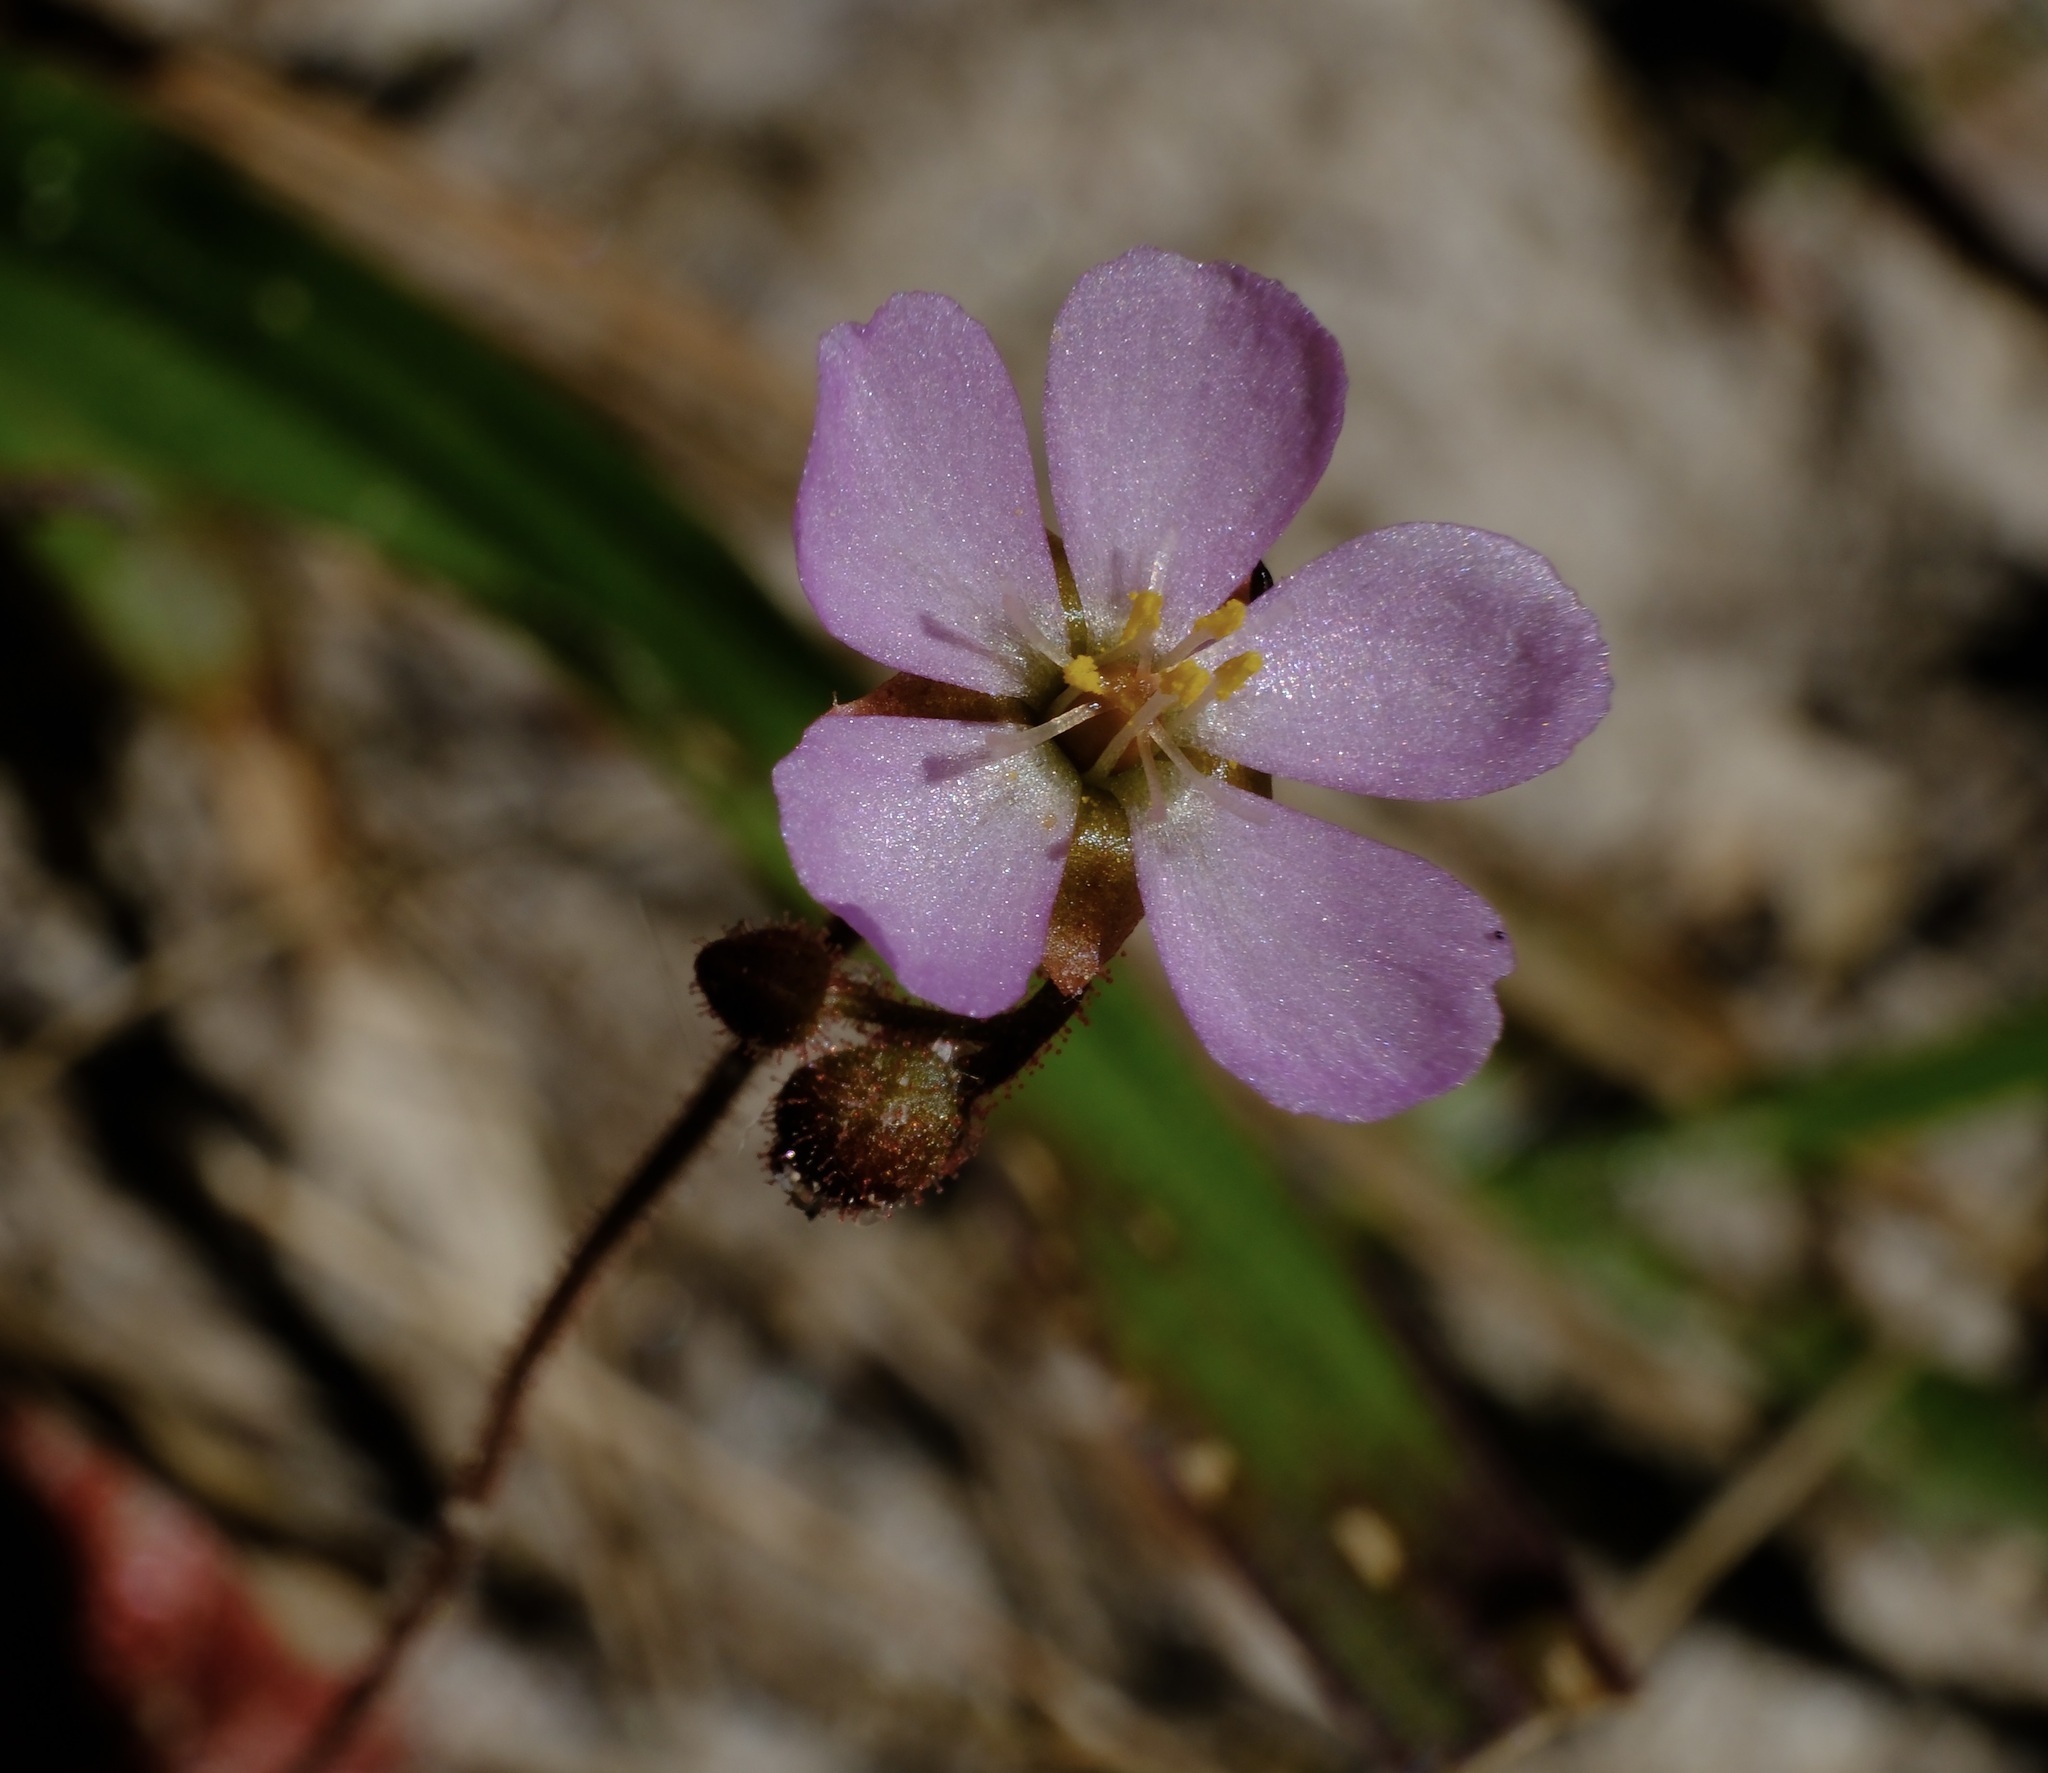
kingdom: Plantae
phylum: Tracheophyta
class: Magnoliopsida
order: Caryophyllales
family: Droseraceae
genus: Drosera
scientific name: Drosera brevifolia
